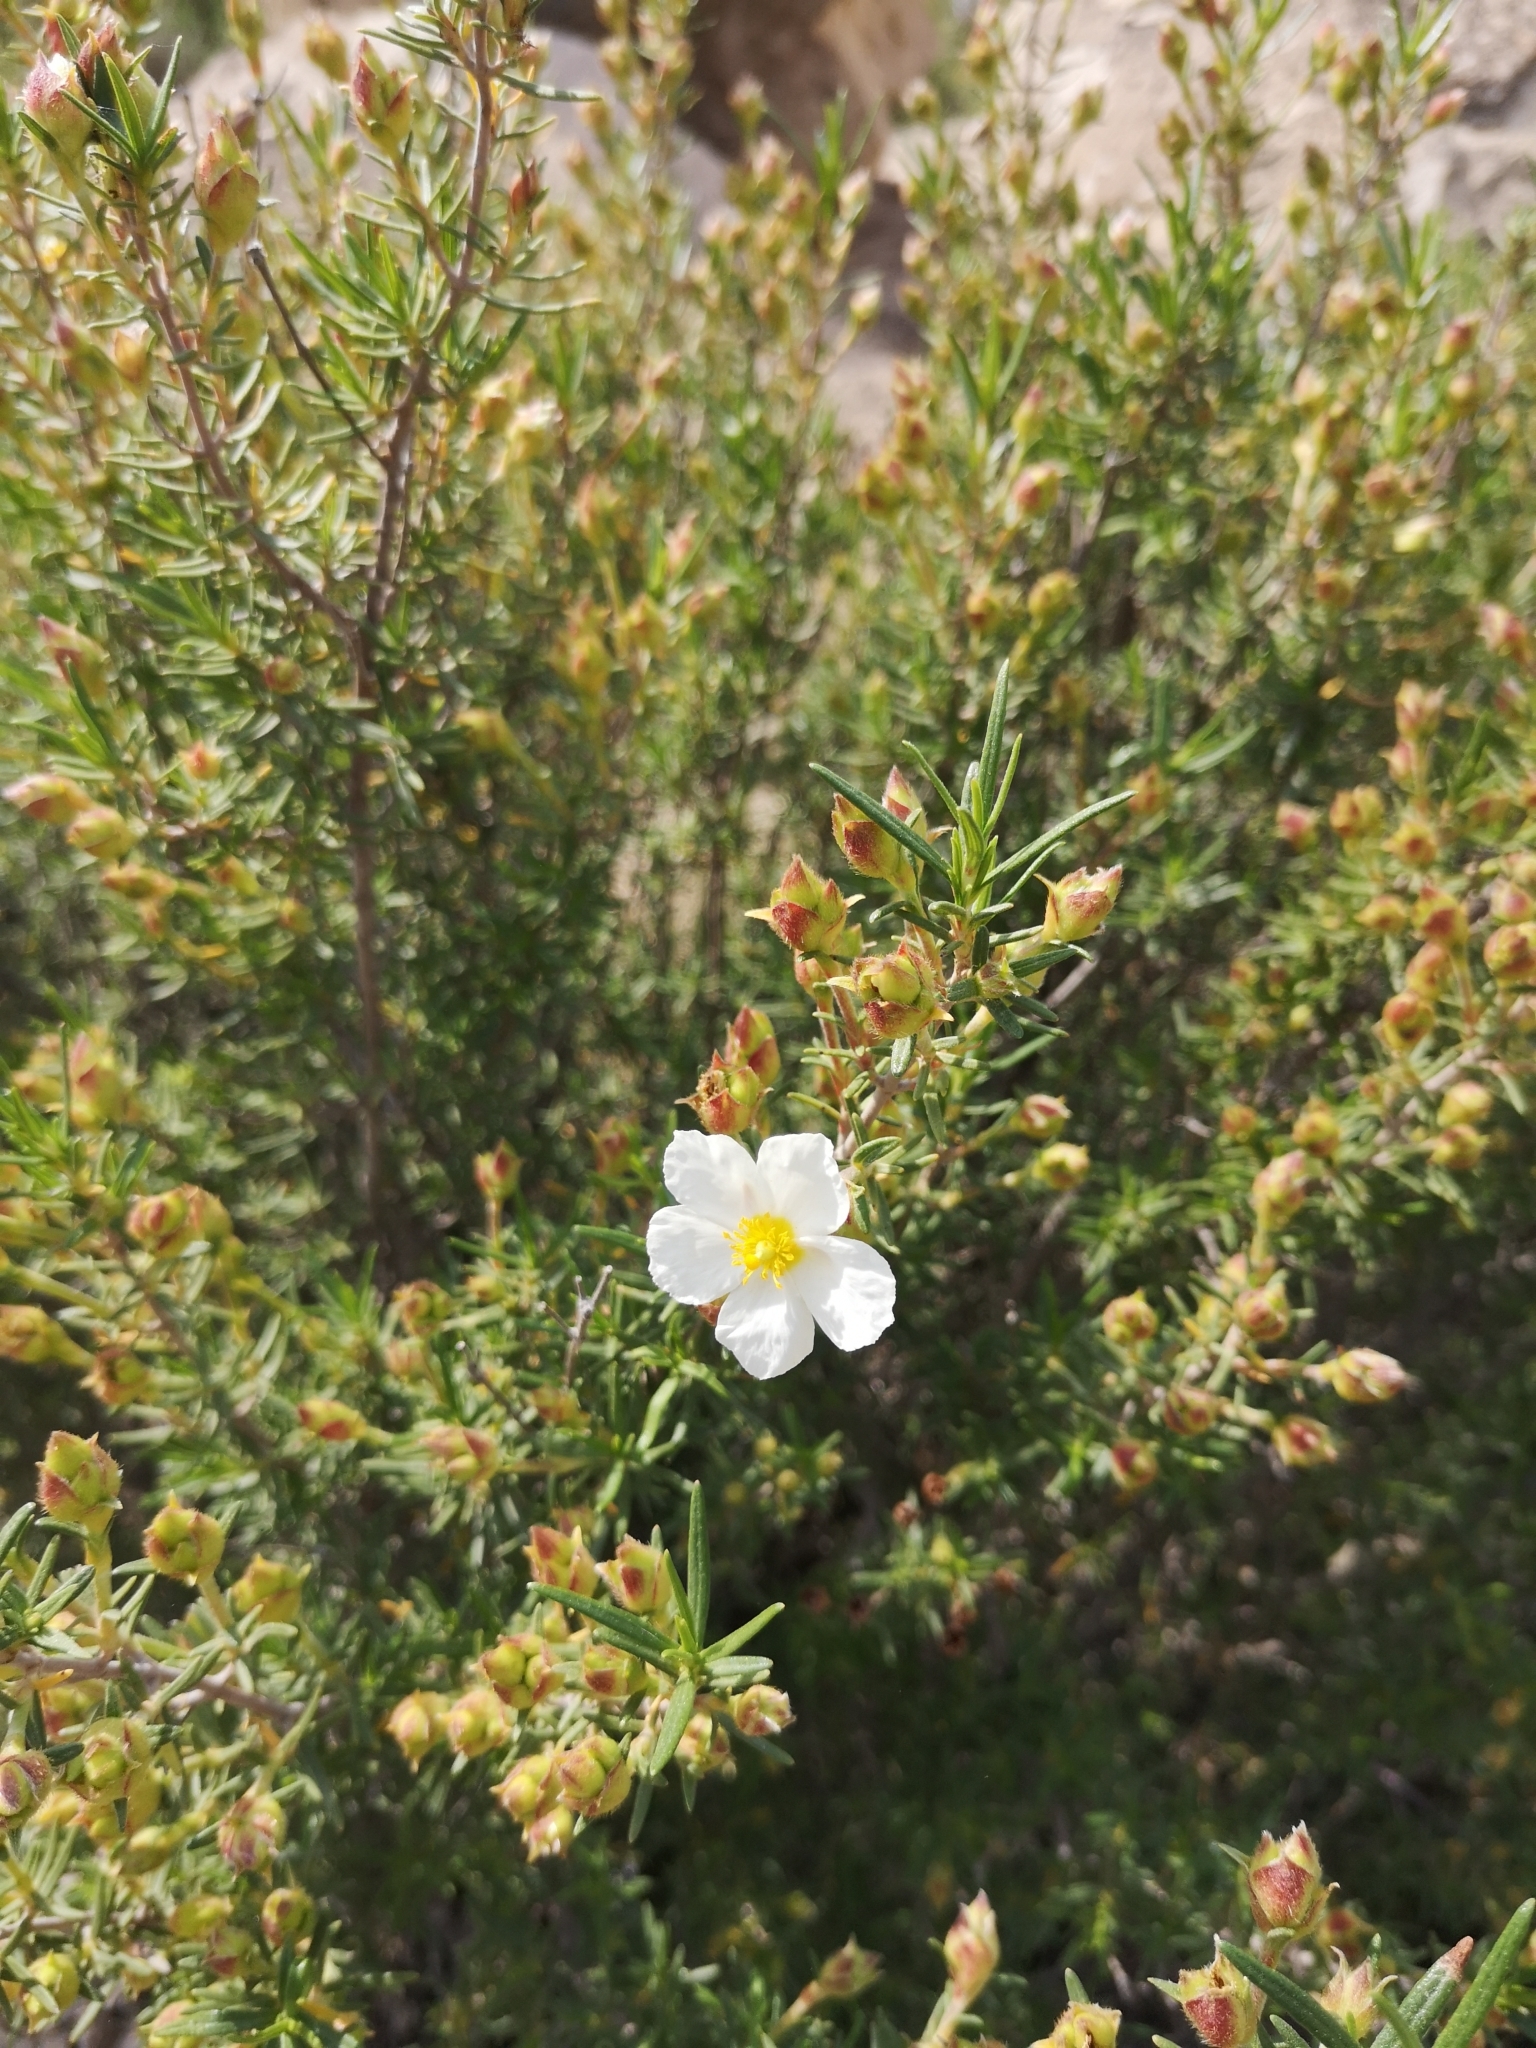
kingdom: Plantae
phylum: Tracheophyta
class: Magnoliopsida
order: Malvales
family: Cistaceae
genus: Cistus
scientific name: Cistus clusii
